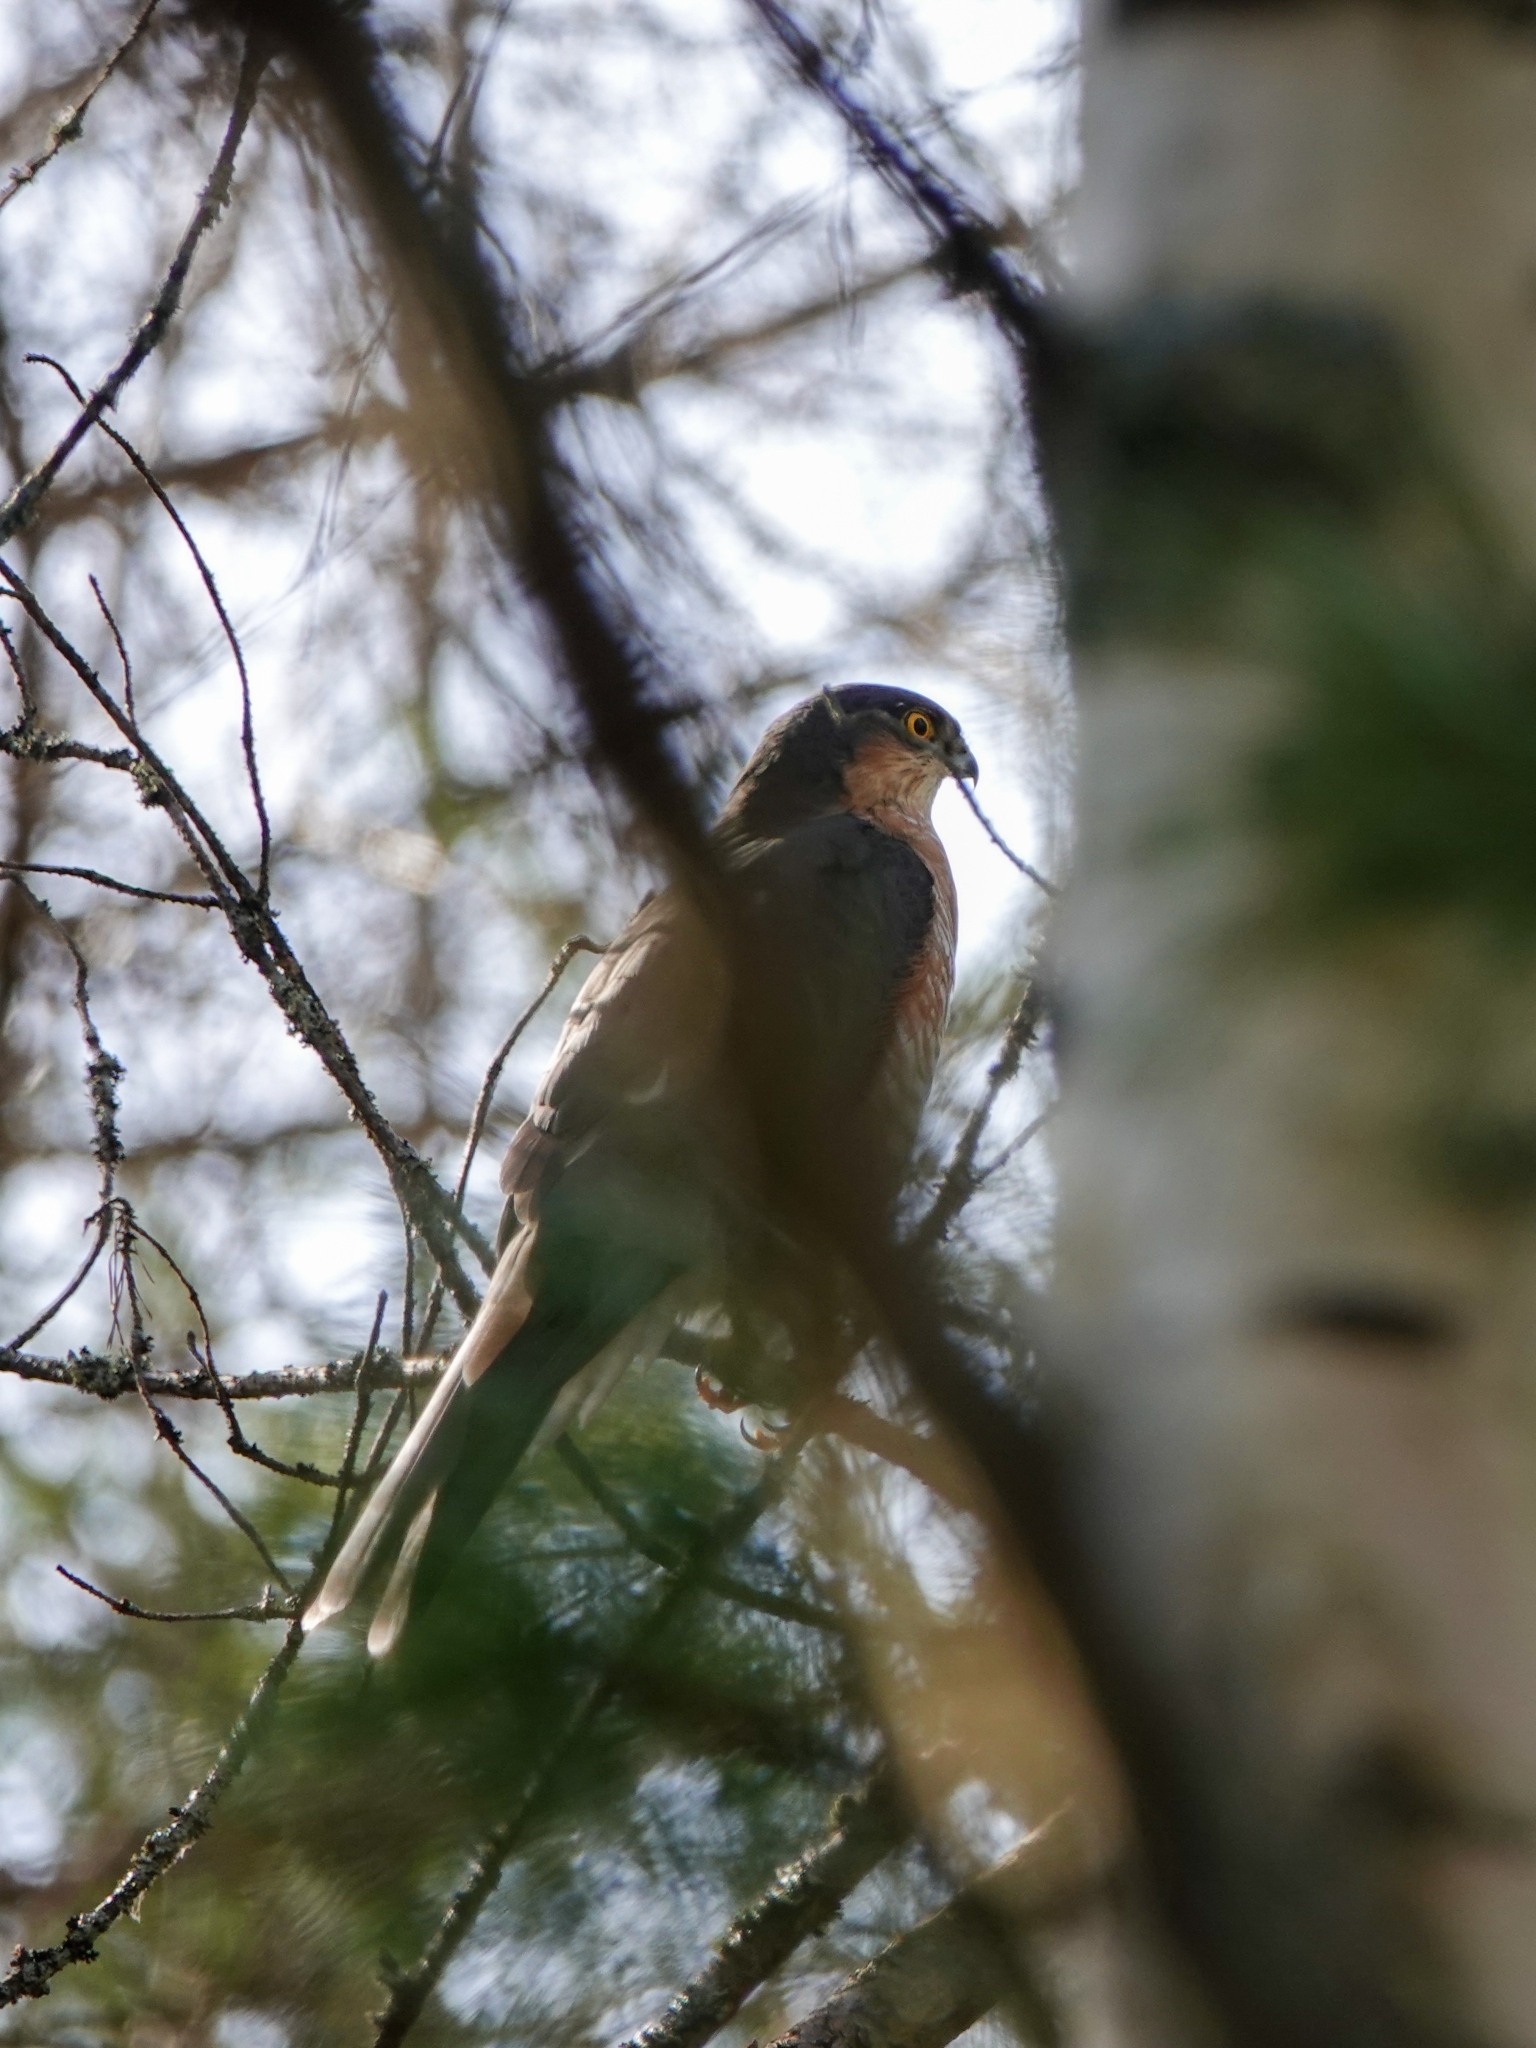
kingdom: Animalia
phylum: Chordata
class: Aves
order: Accipitriformes
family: Accipitridae
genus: Accipiter
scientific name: Accipiter nisus
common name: Eurasian sparrowhawk
